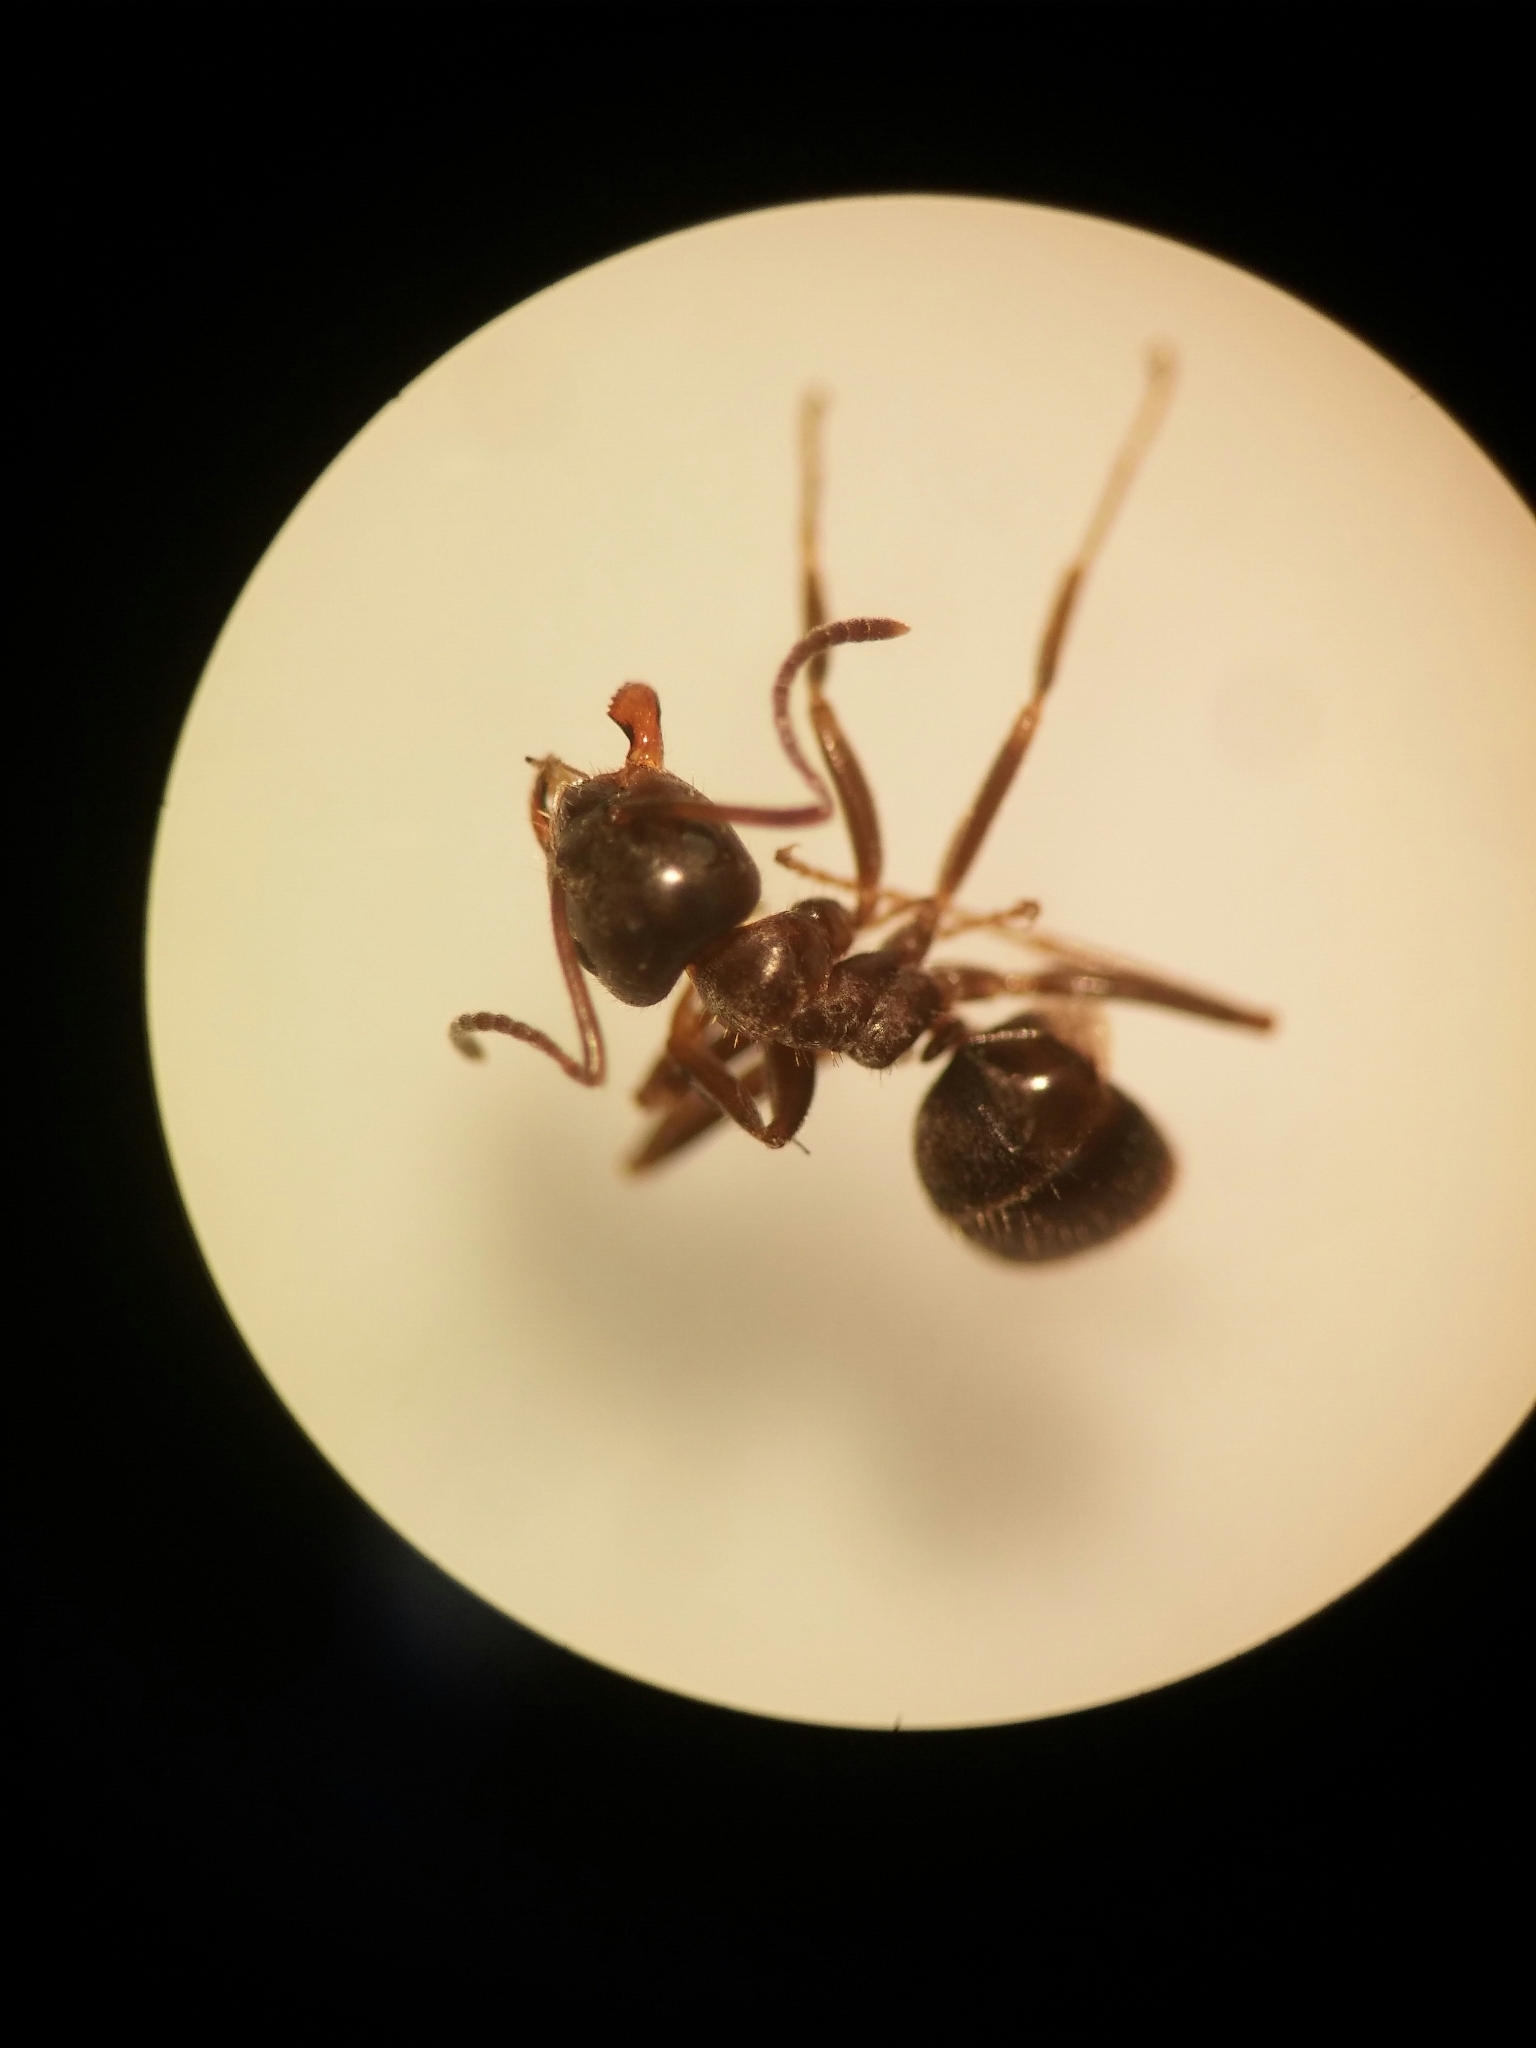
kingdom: Animalia
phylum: Arthropoda
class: Insecta
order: Hymenoptera
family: Formicidae
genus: Lasius
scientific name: Lasius grandis
